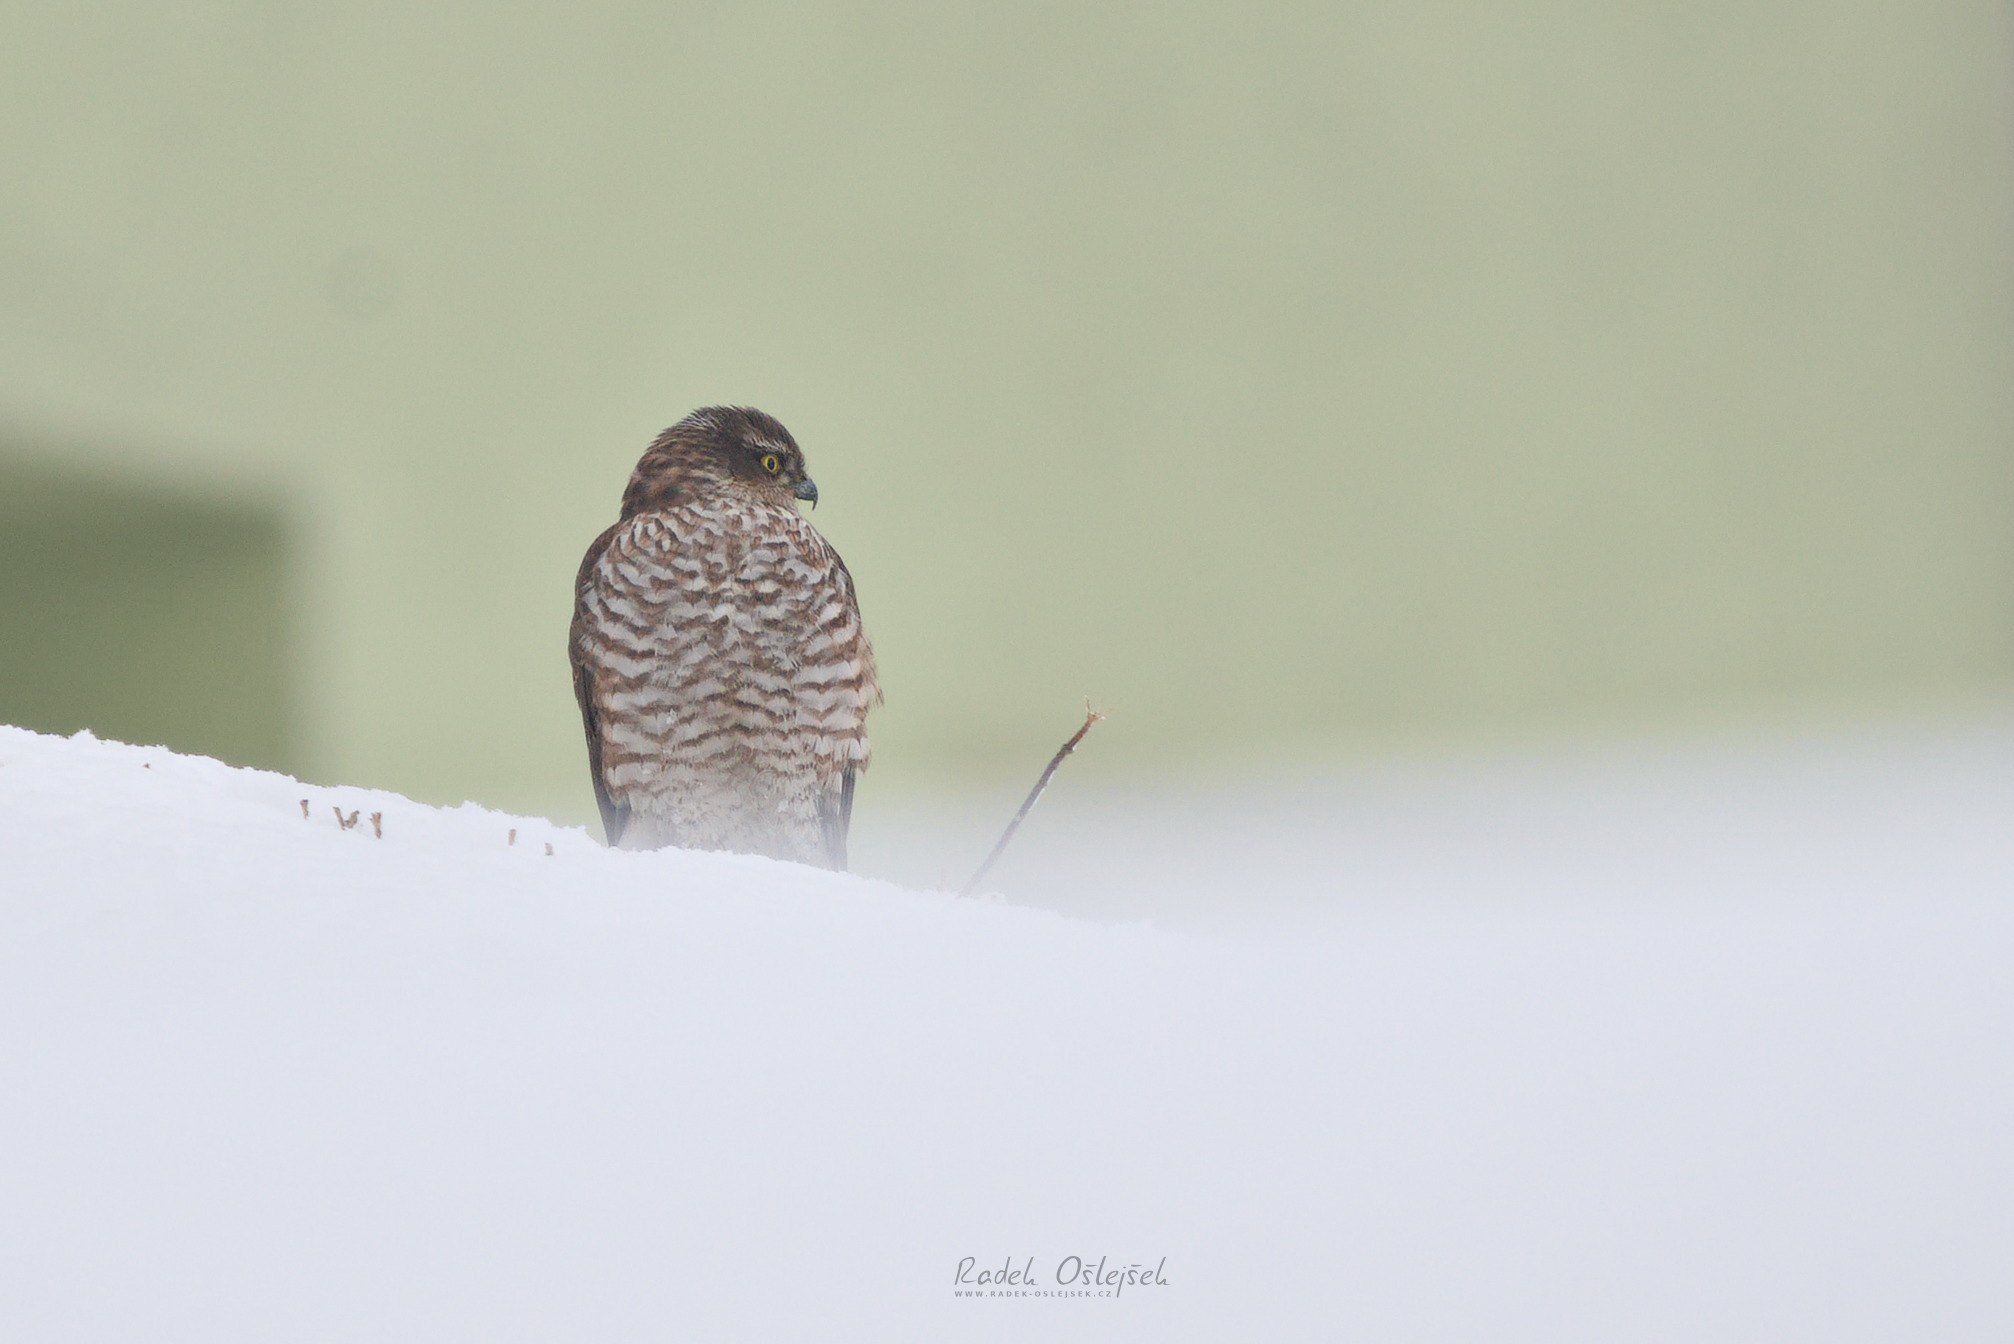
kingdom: Animalia
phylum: Chordata
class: Aves
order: Accipitriformes
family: Accipitridae
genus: Accipiter
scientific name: Accipiter nisus
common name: Eurasian sparrowhawk
